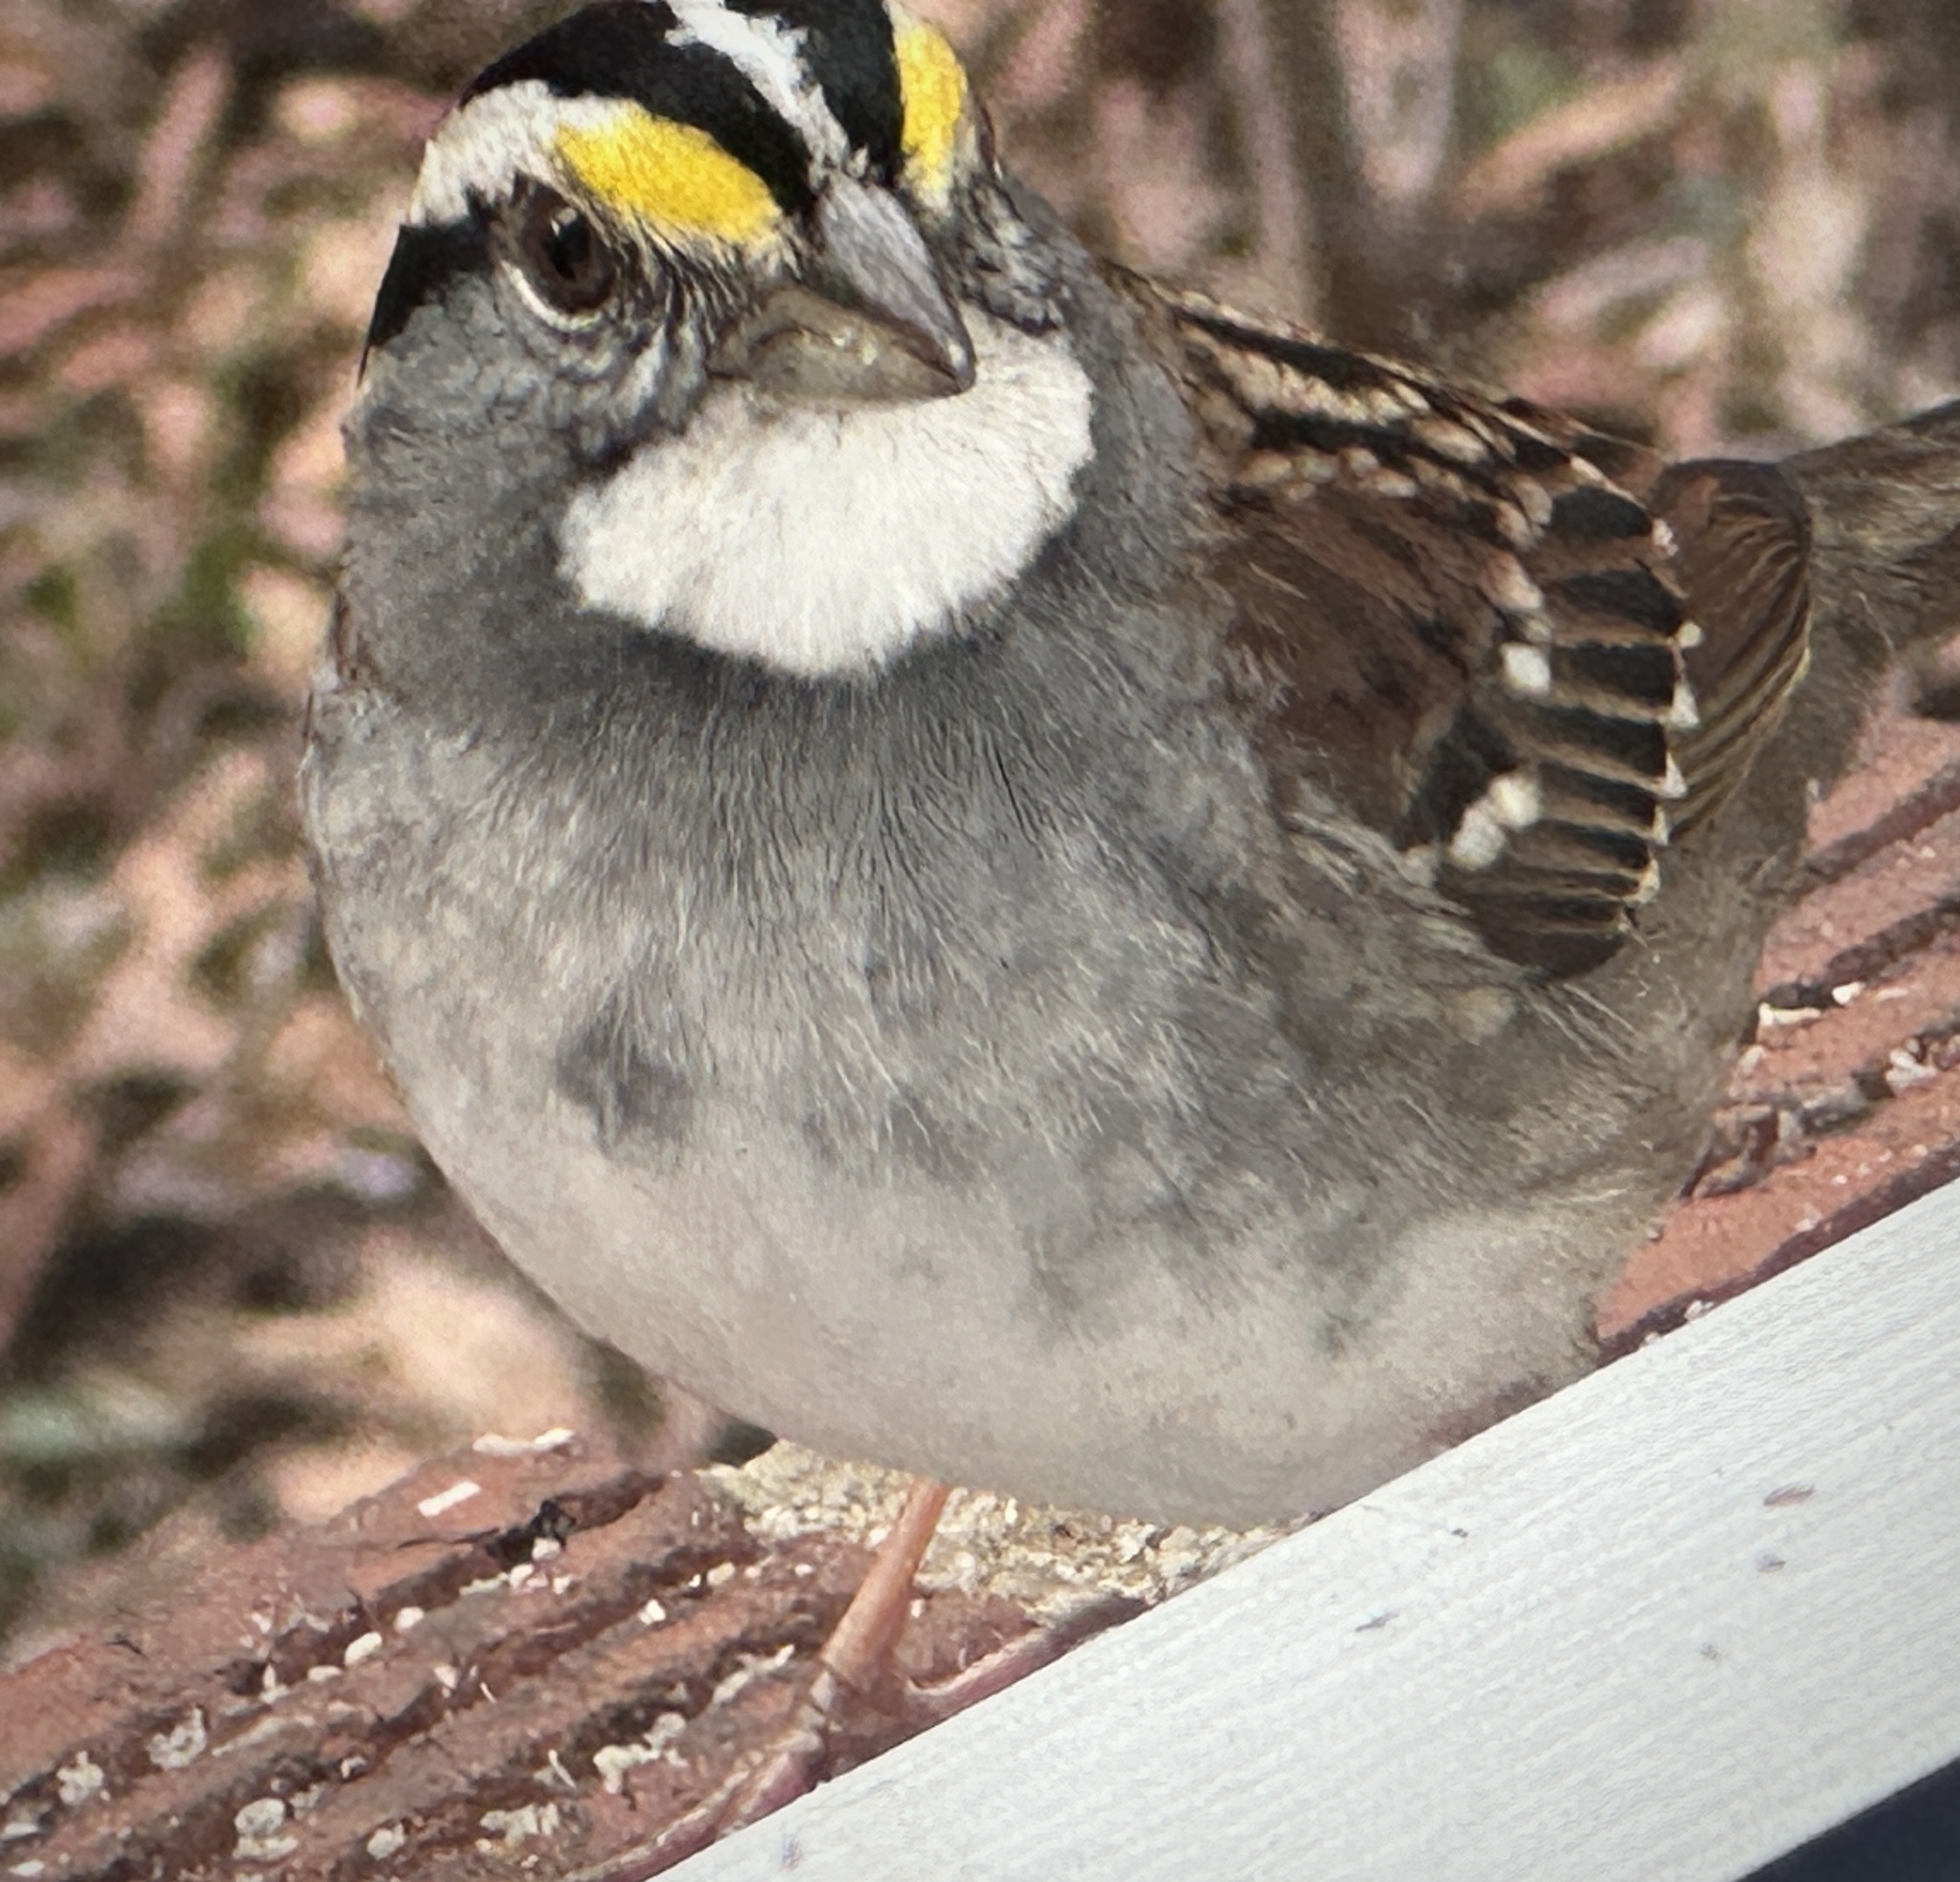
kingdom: Animalia
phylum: Chordata
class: Aves
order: Passeriformes
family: Passerellidae
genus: Zonotrichia
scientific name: Zonotrichia albicollis
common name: White-throated sparrow
